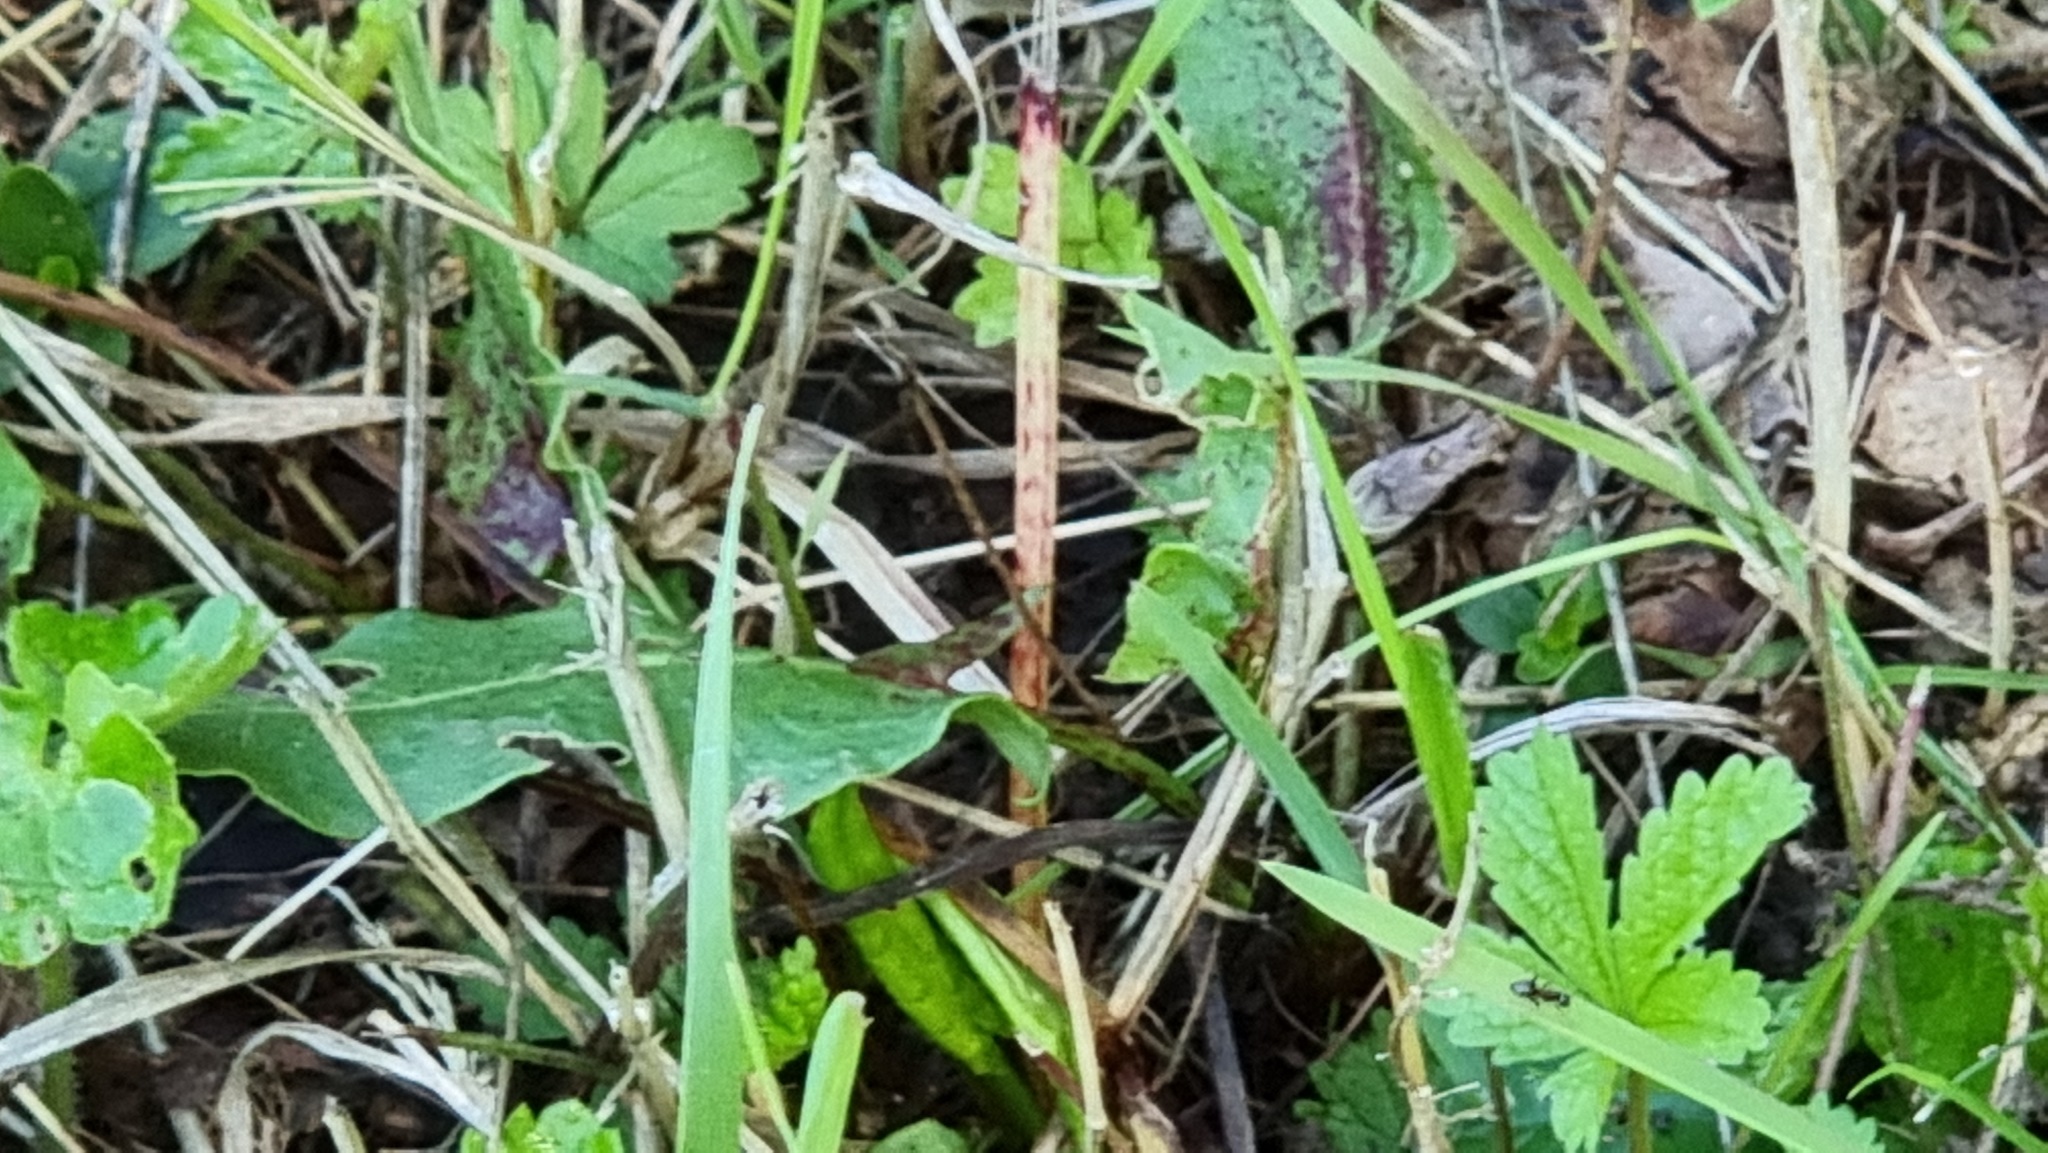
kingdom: Animalia
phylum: Arthropoda
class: Insecta
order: Orthoptera
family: Tettigoniidae
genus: Pholidoptera
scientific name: Pholidoptera griseoaptera
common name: Dark bush-cricket
